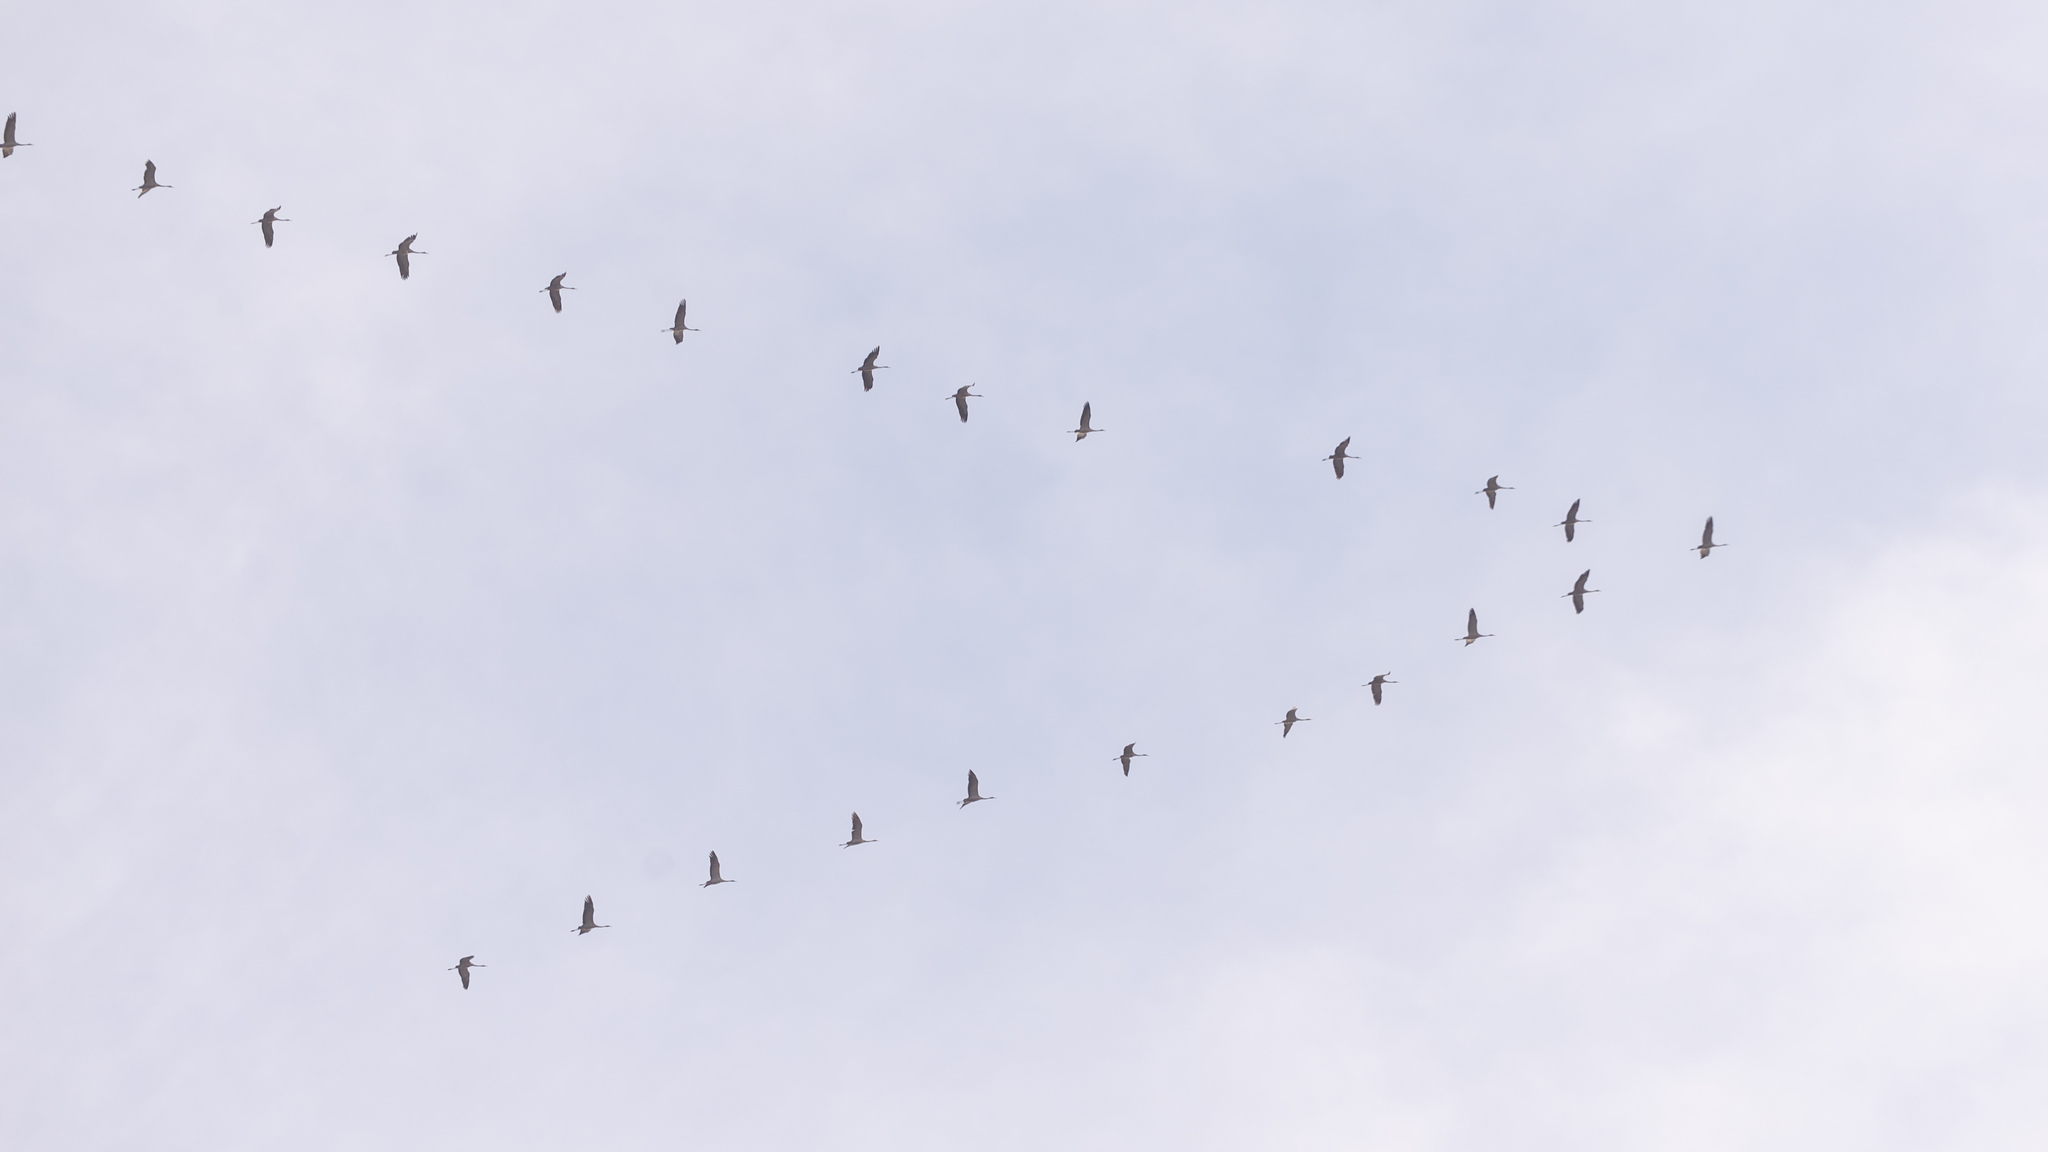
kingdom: Animalia
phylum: Chordata
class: Aves
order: Gruiformes
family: Gruidae
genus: Grus
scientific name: Grus grus
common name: Common crane
